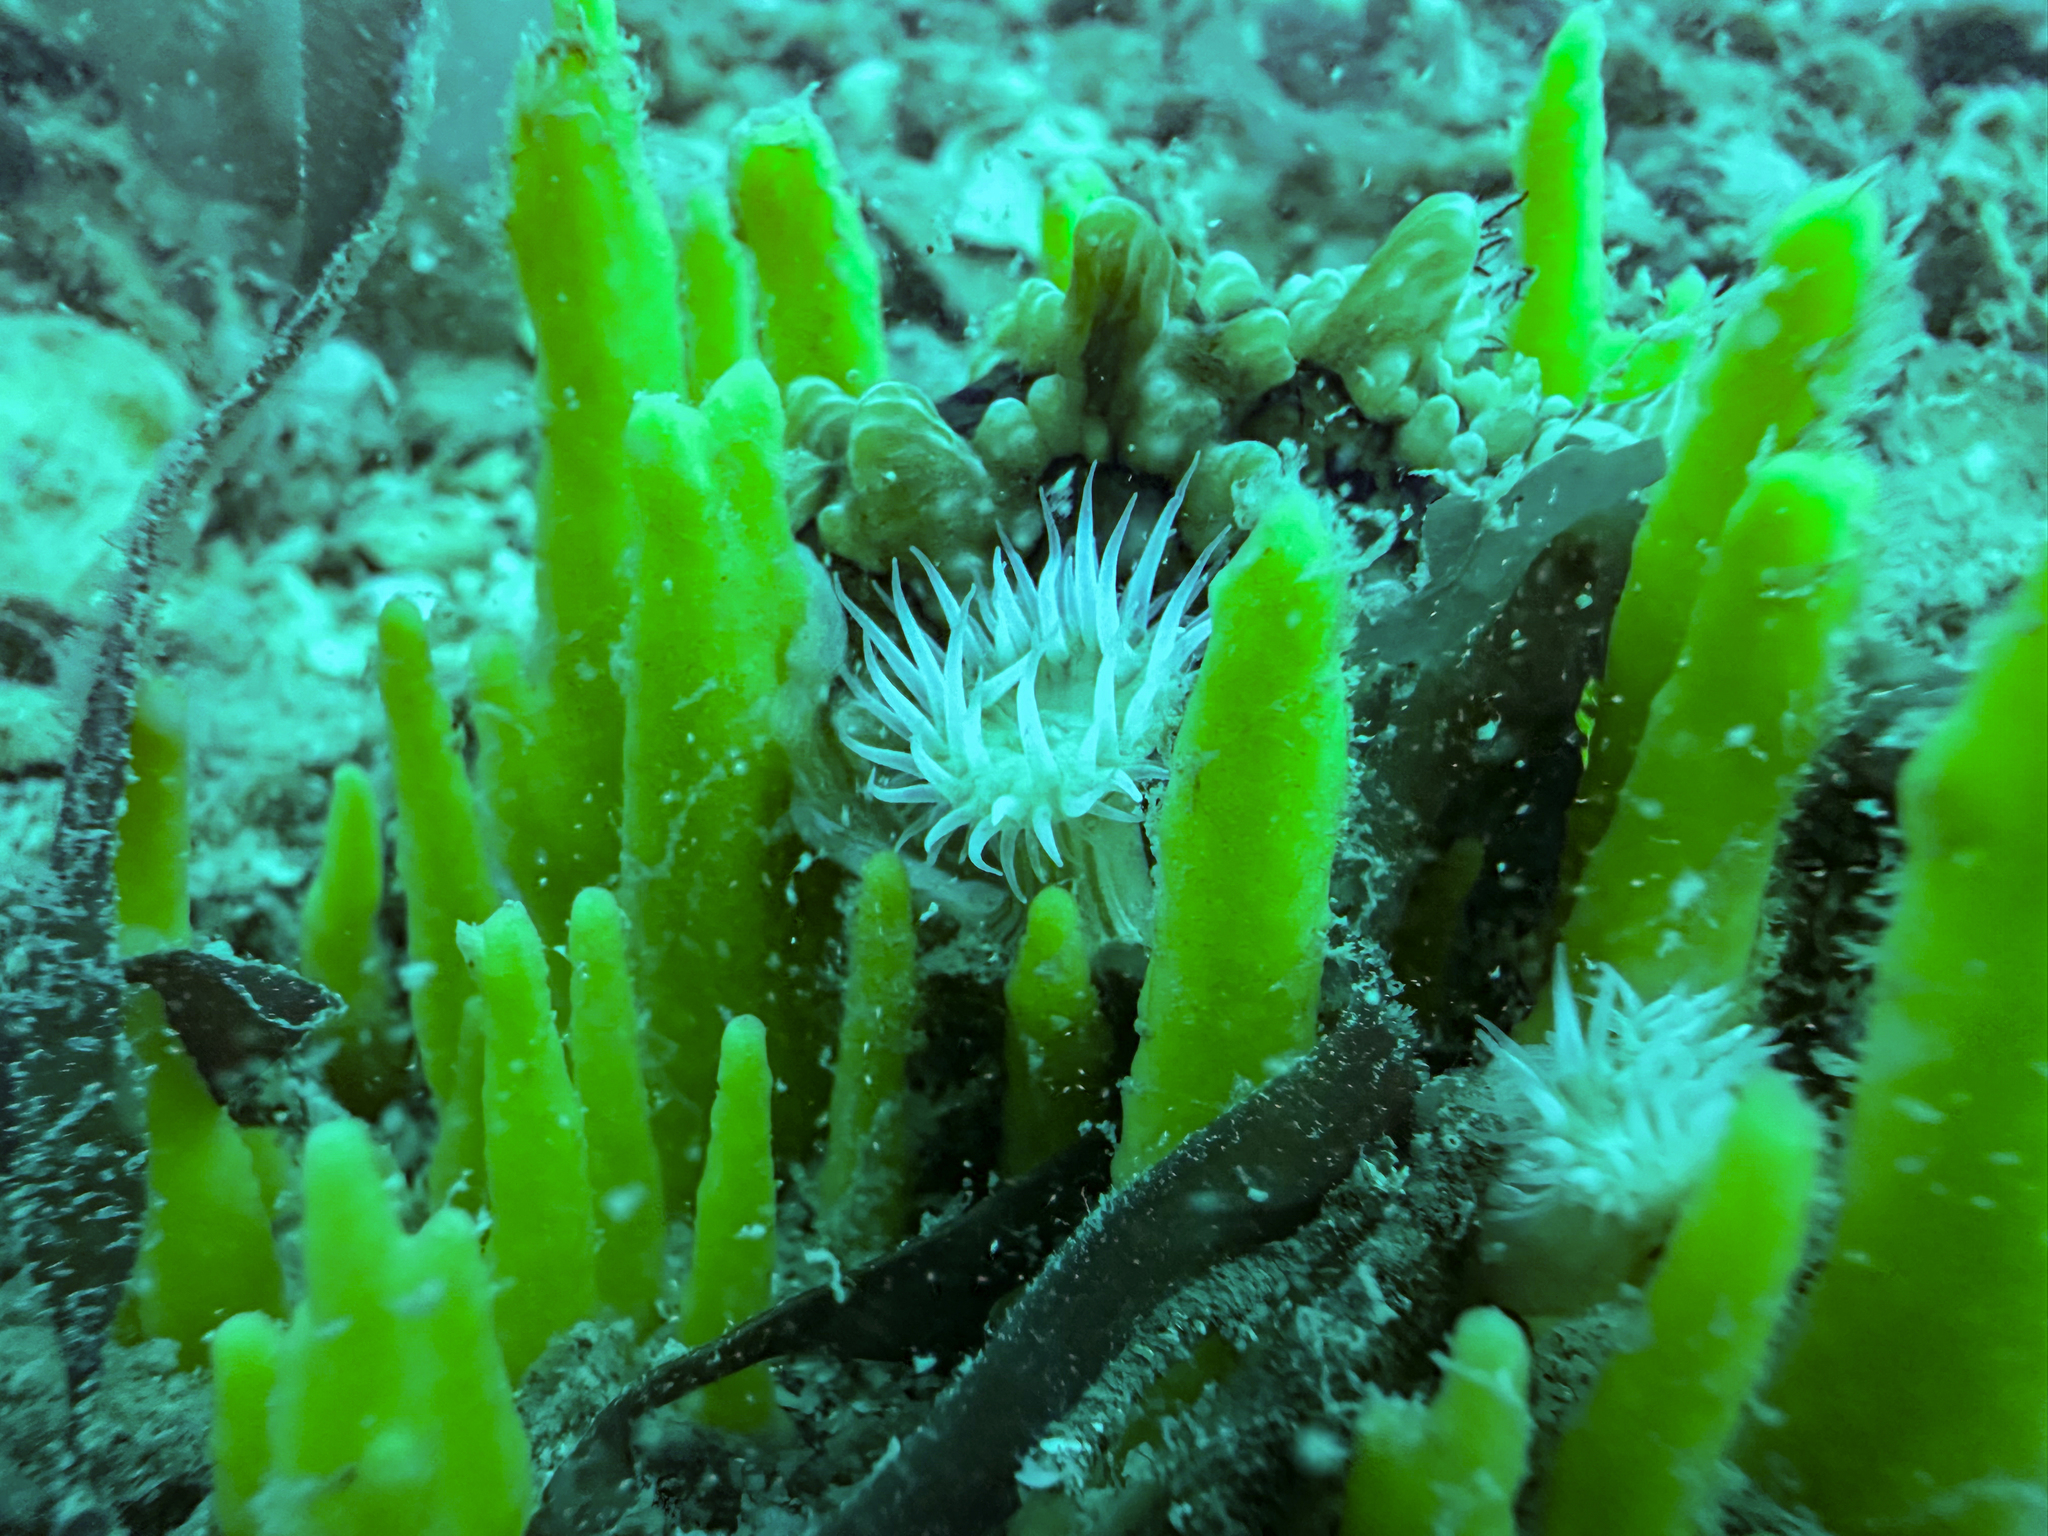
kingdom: Animalia
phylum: Porifera
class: Demospongiae
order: Suberitida
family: Halichondriidae
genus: Ciocalypta
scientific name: Ciocalypta polymastia
